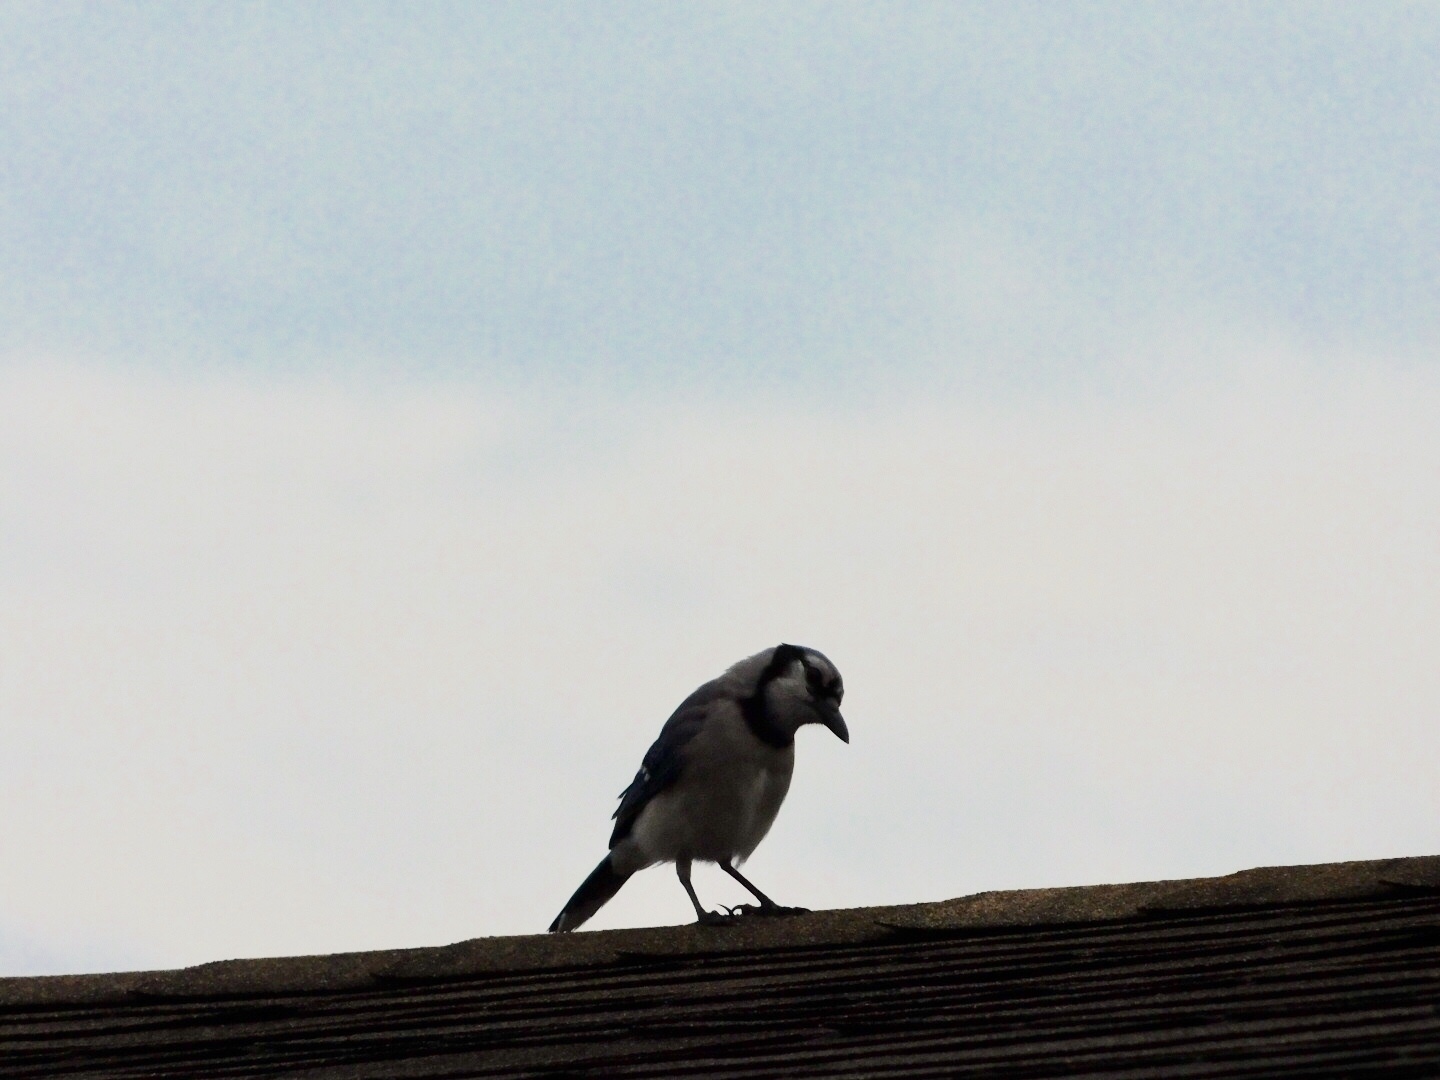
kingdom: Animalia
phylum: Chordata
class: Aves
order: Passeriformes
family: Corvidae
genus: Cyanocitta
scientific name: Cyanocitta cristata
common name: Blue jay
